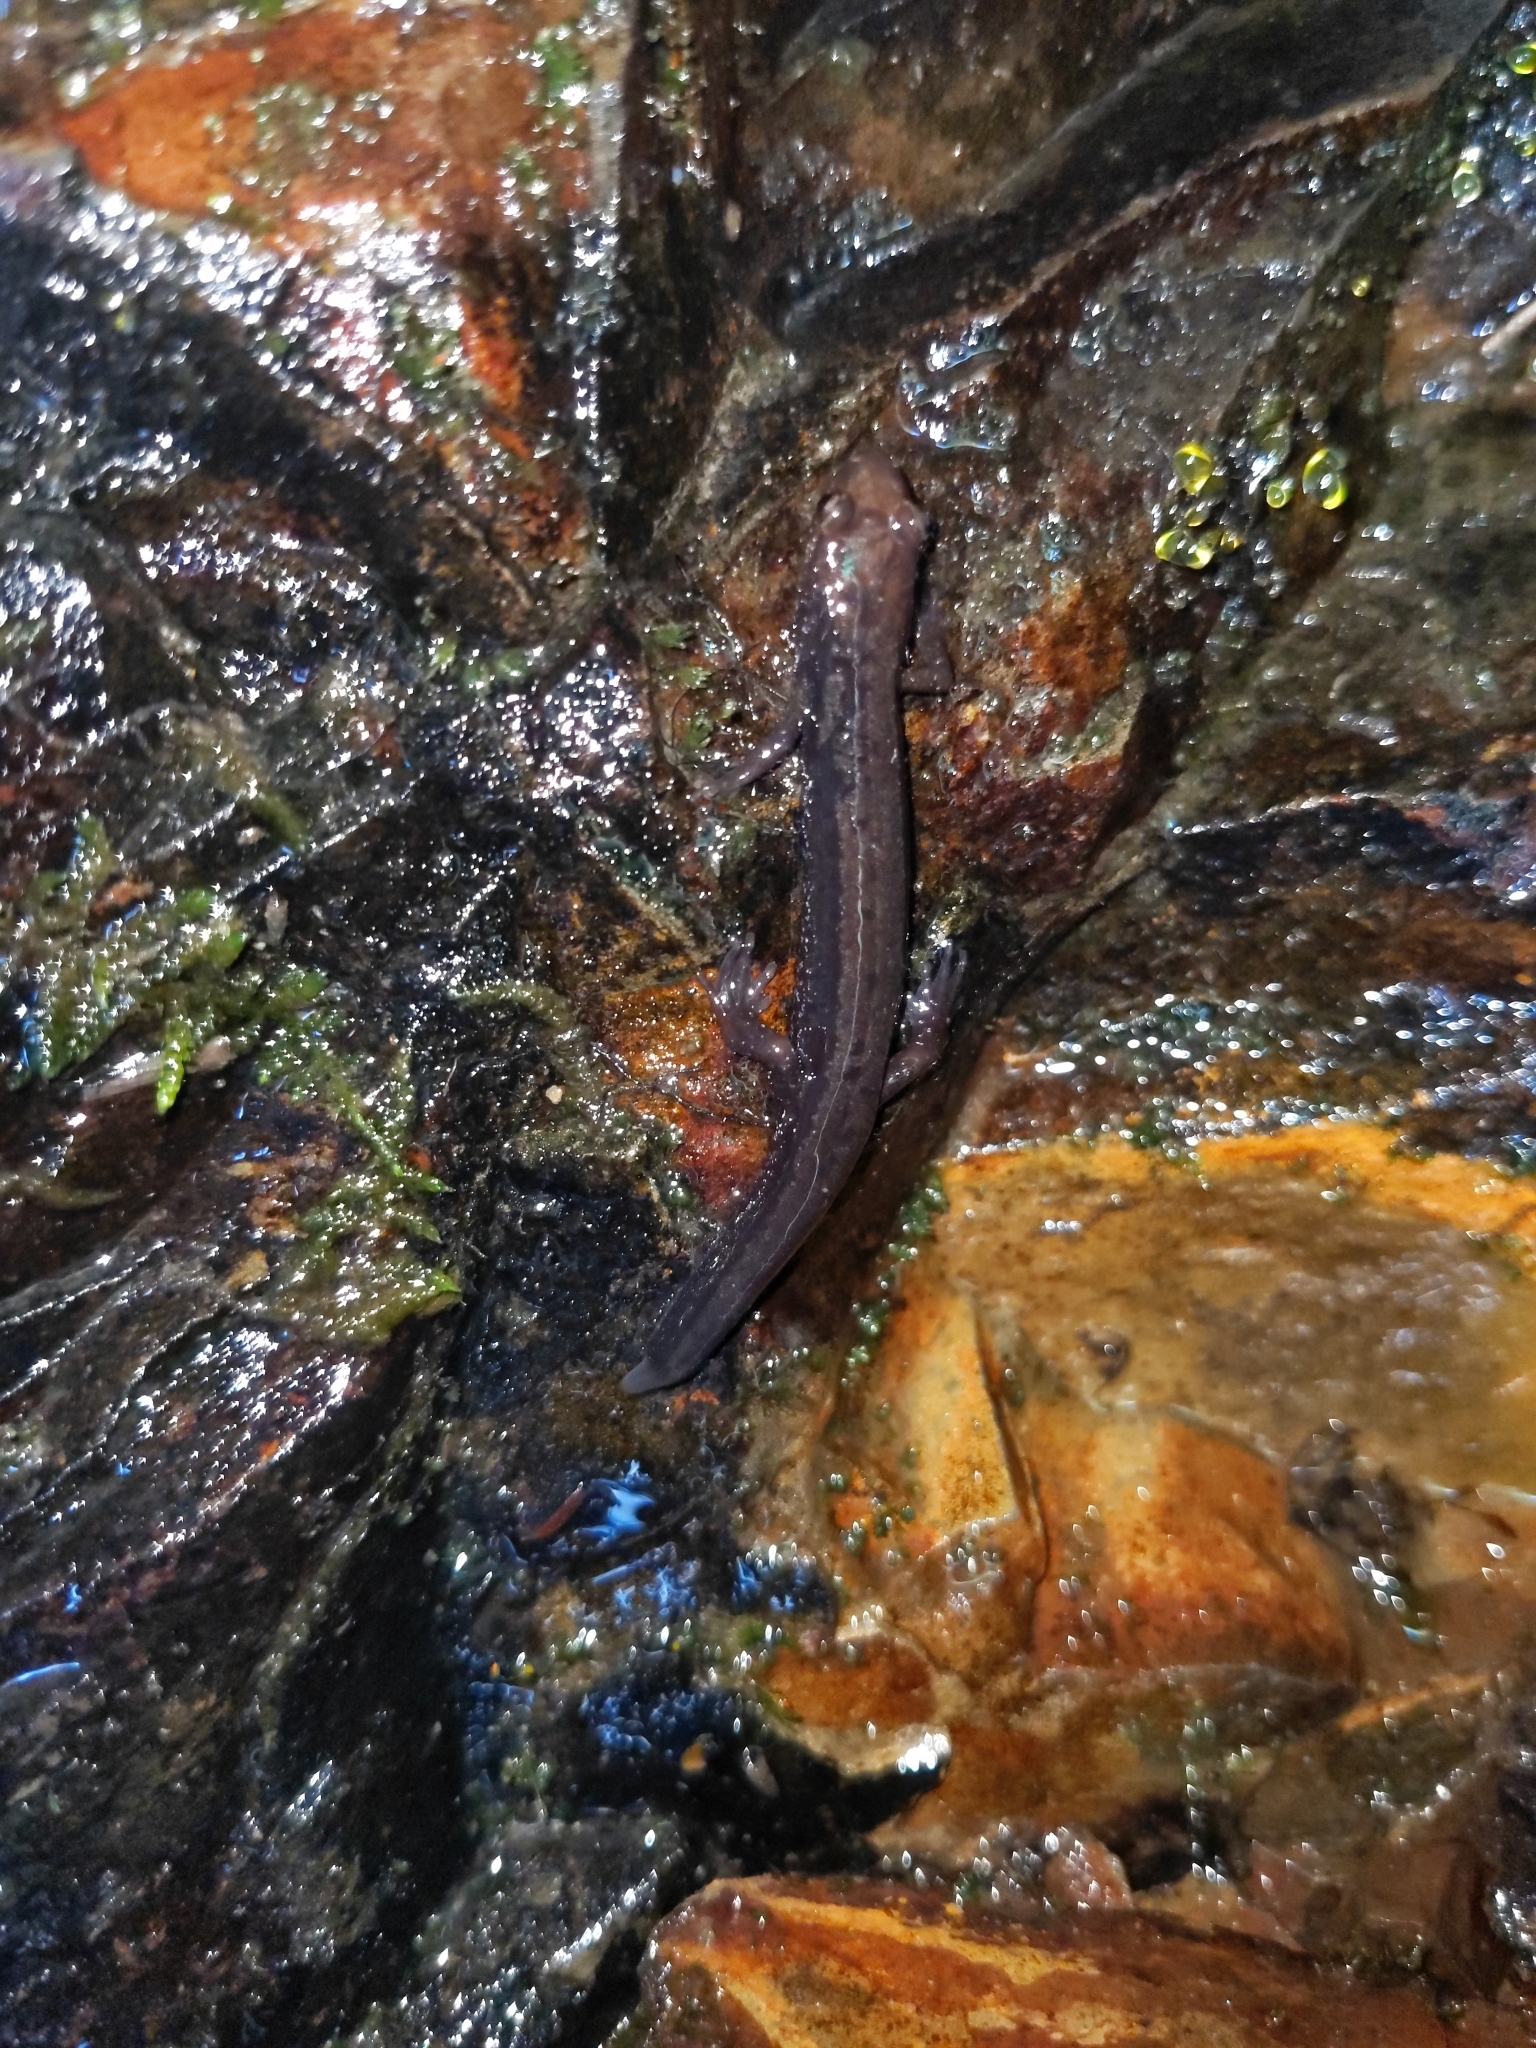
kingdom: Animalia
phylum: Chordata
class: Amphibia
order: Caudata
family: Plethodontidae
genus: Desmognathus
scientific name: Desmognathus ochrophaeus
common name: Allegheny mountain dusky salamander
